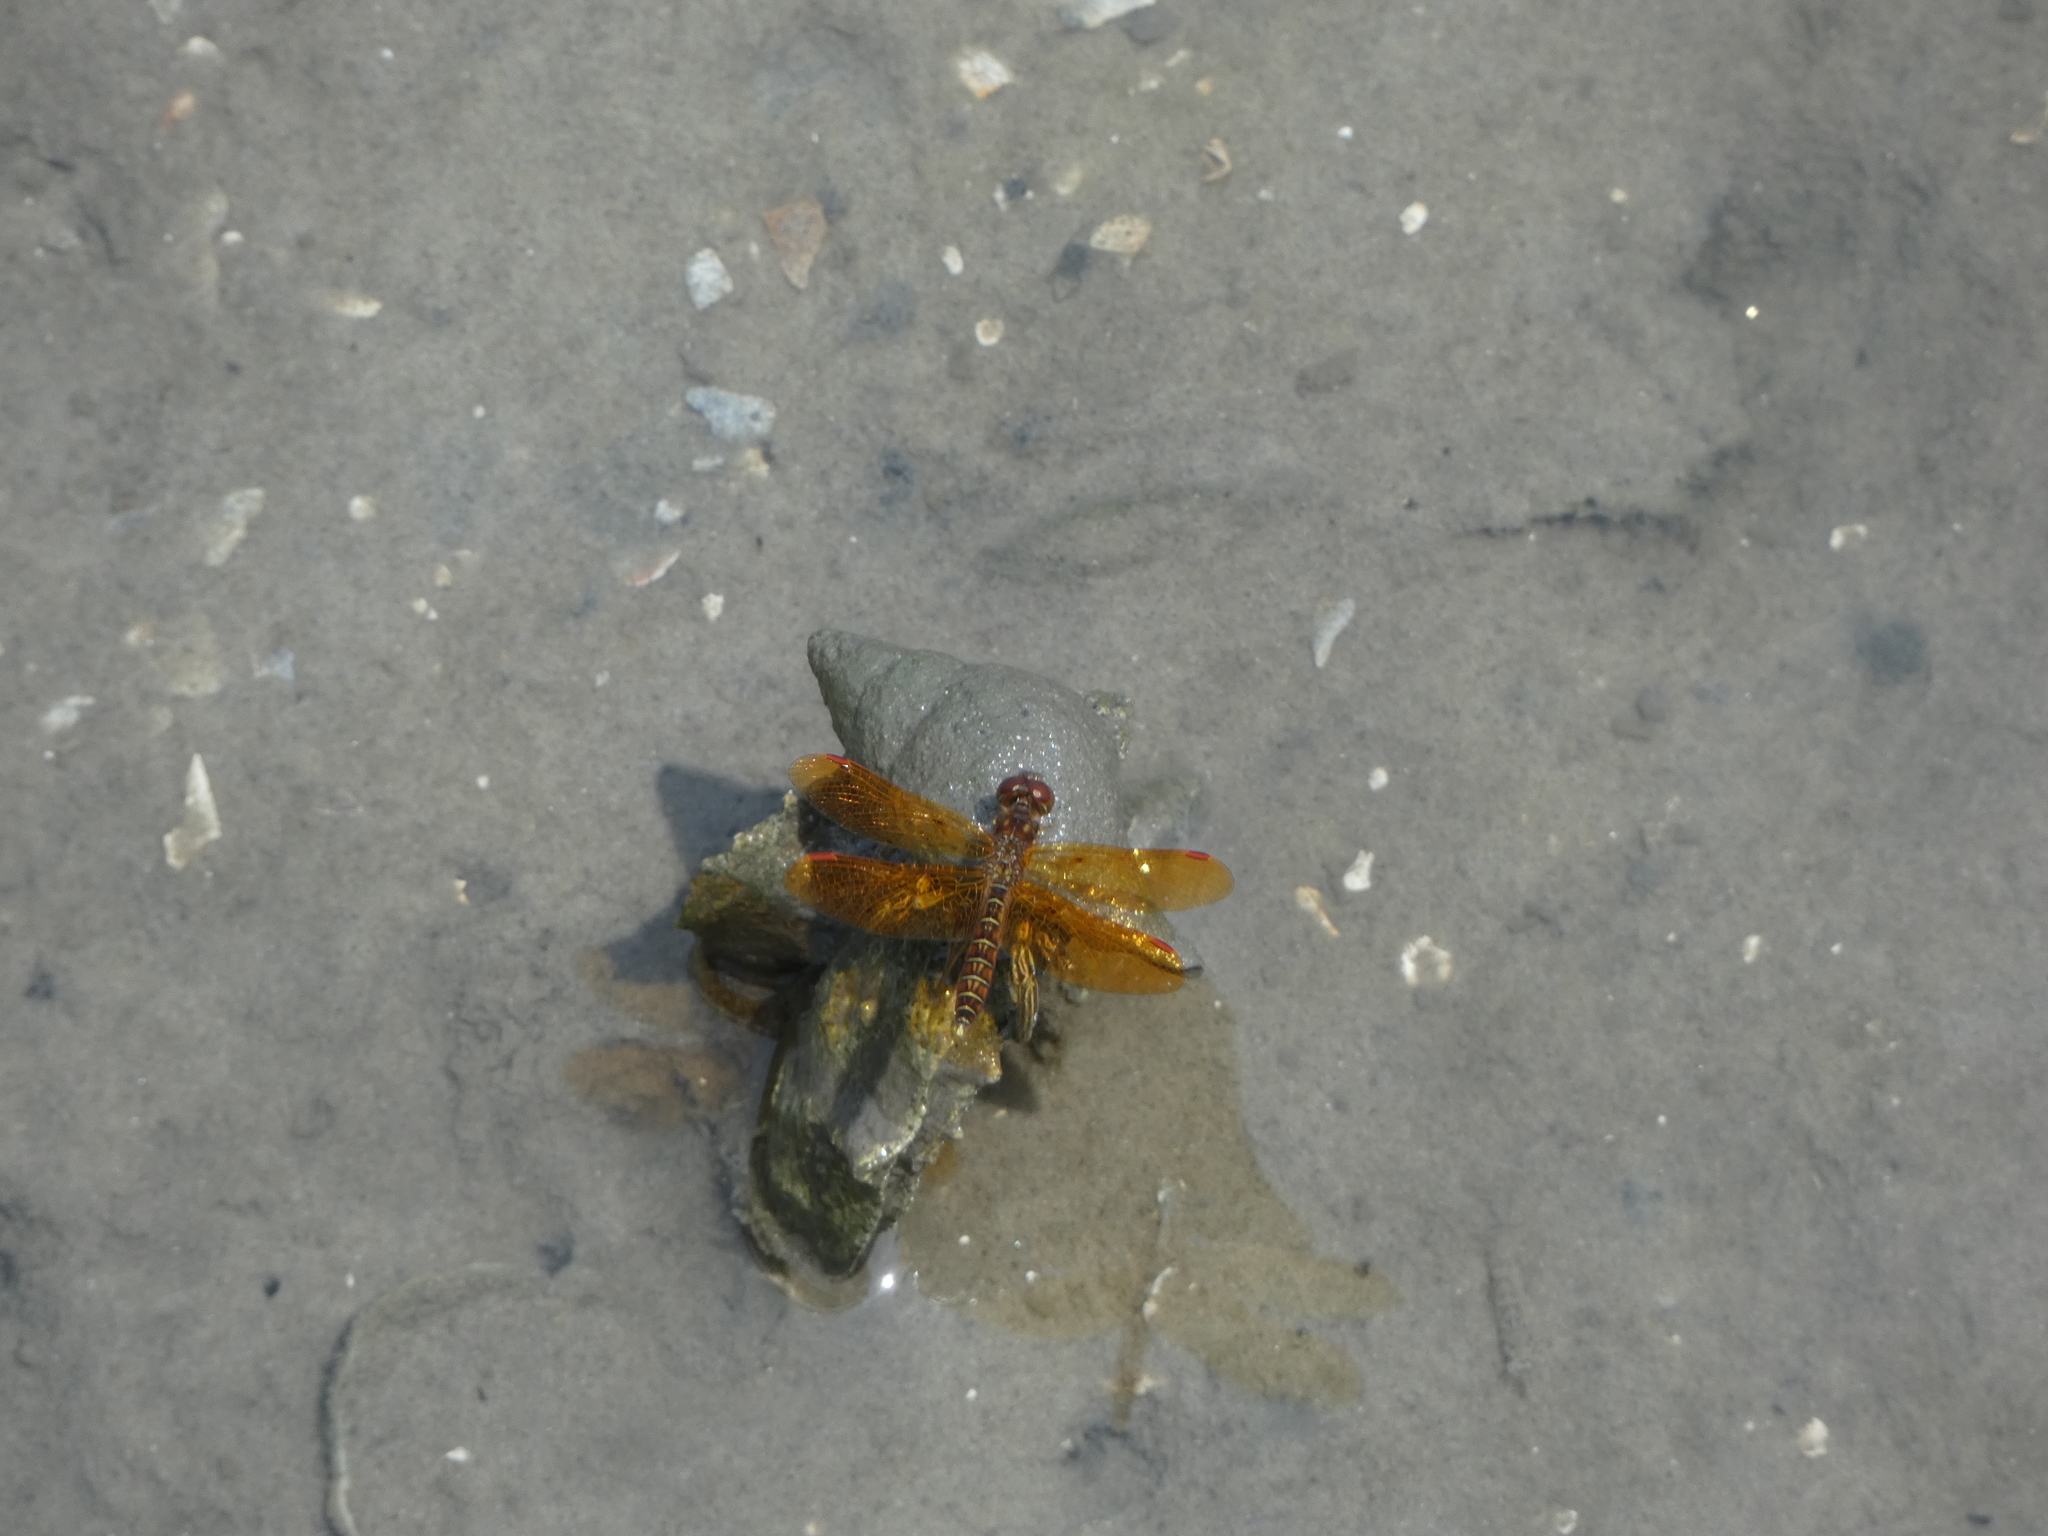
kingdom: Animalia
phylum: Arthropoda
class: Insecta
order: Odonata
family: Libellulidae
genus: Perithemis
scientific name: Perithemis tenera
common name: Eastern amberwing
